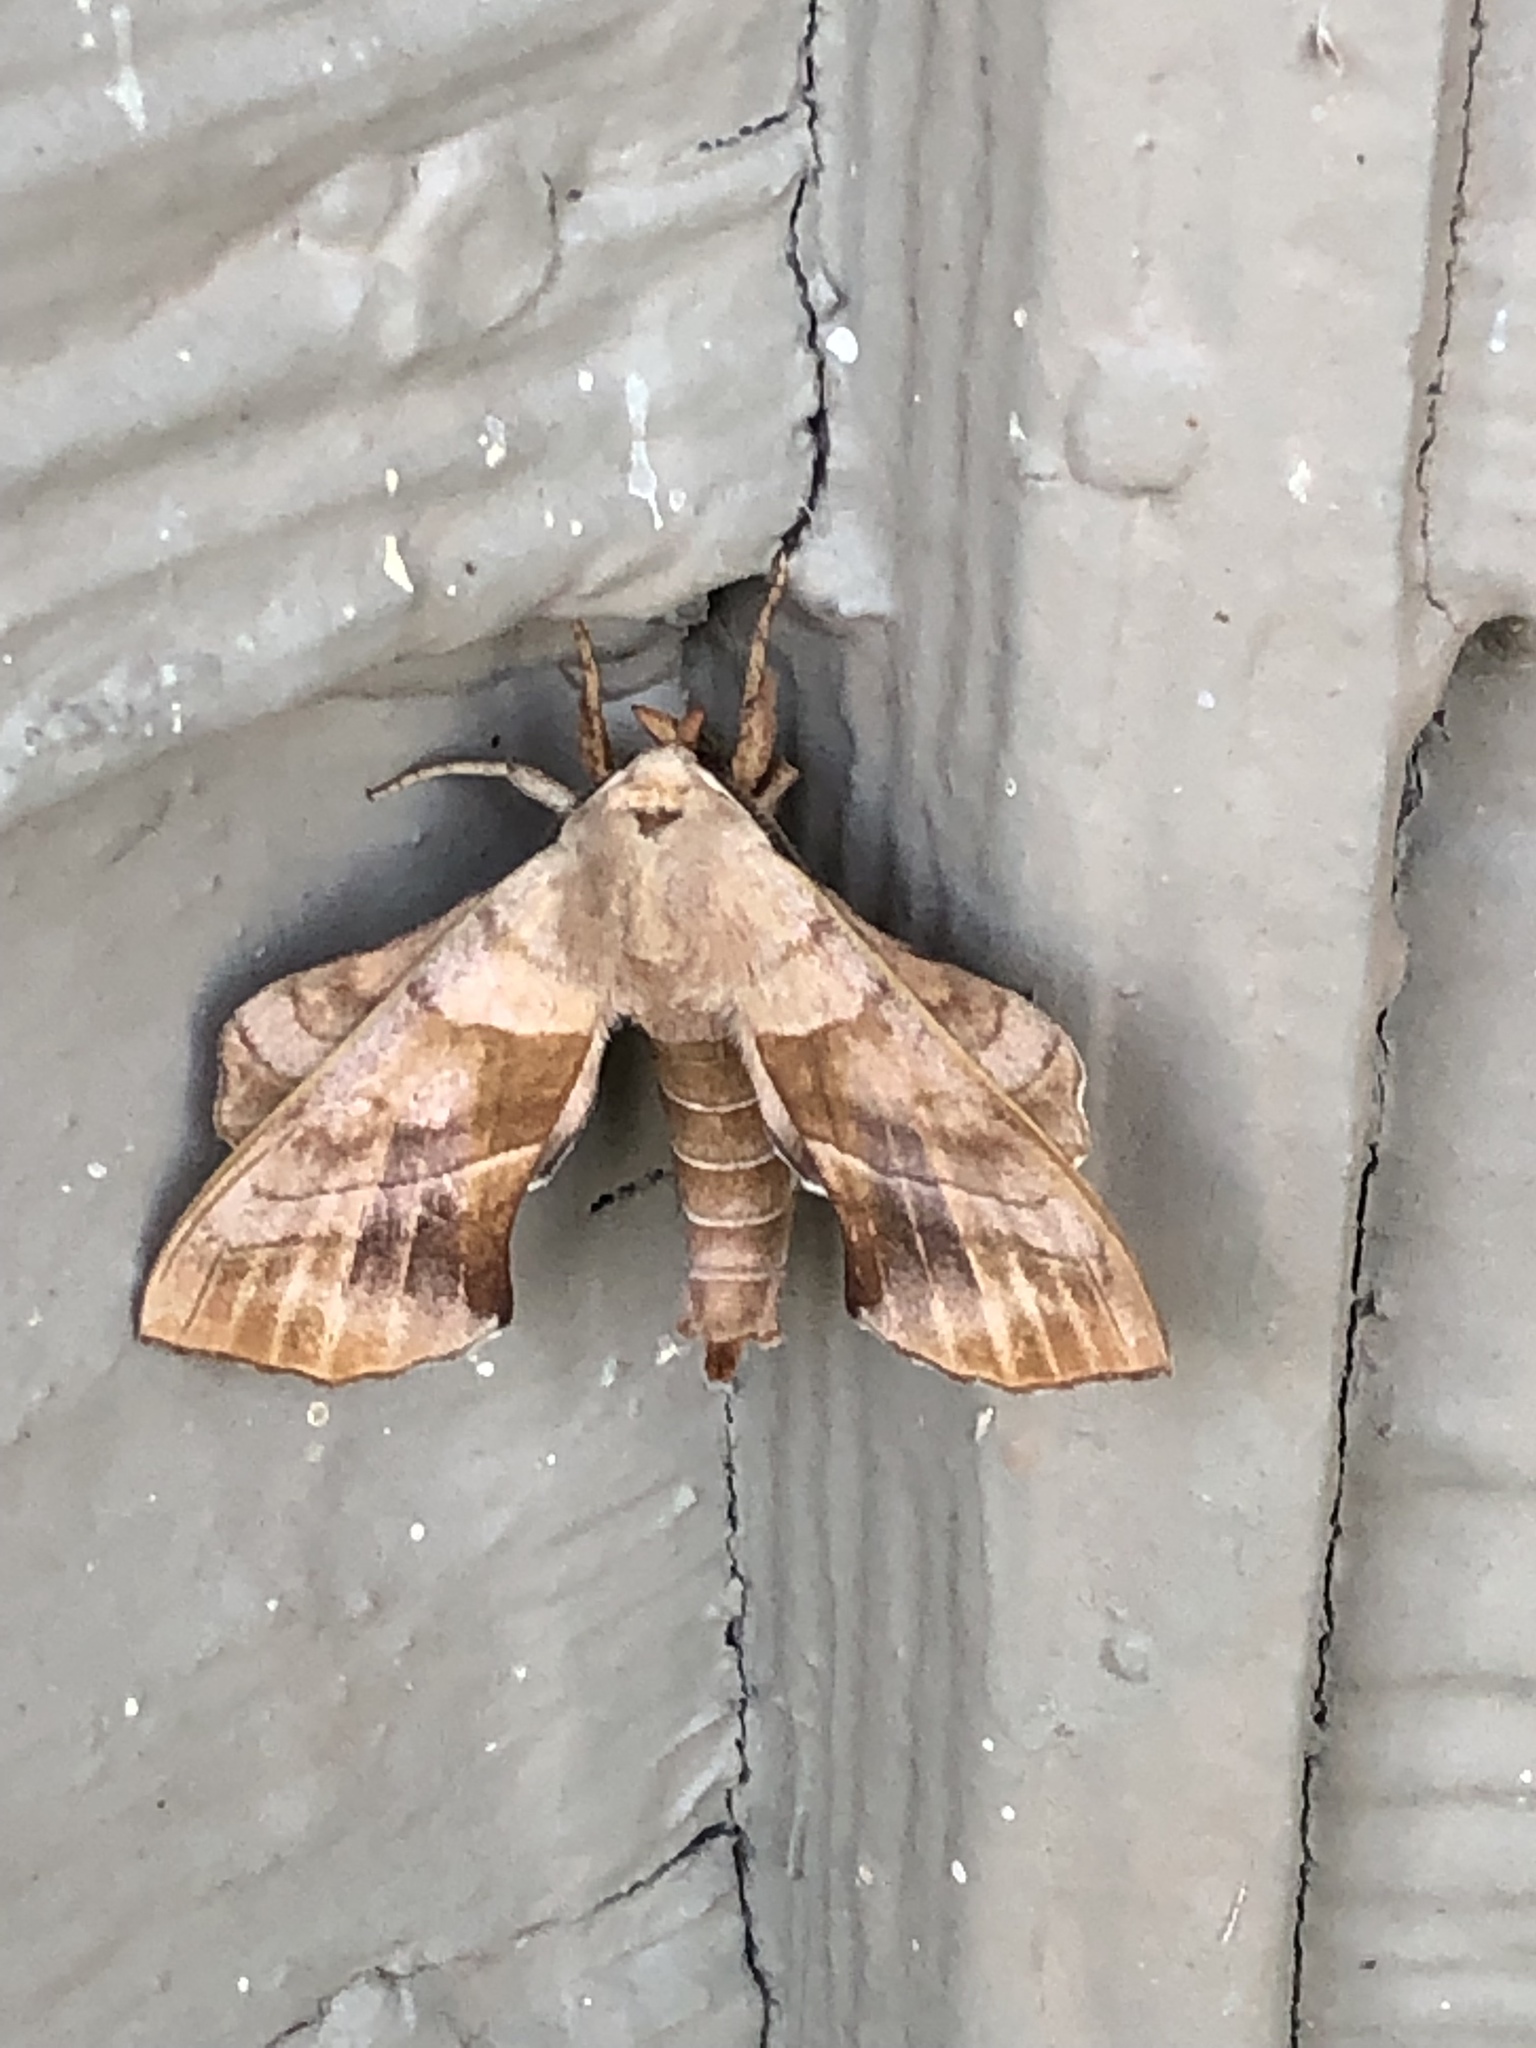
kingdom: Animalia
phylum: Arthropoda
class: Insecta
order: Lepidoptera
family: Sphingidae
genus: Amorpha
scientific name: Amorpha juglandis
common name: Walnut sphinx
